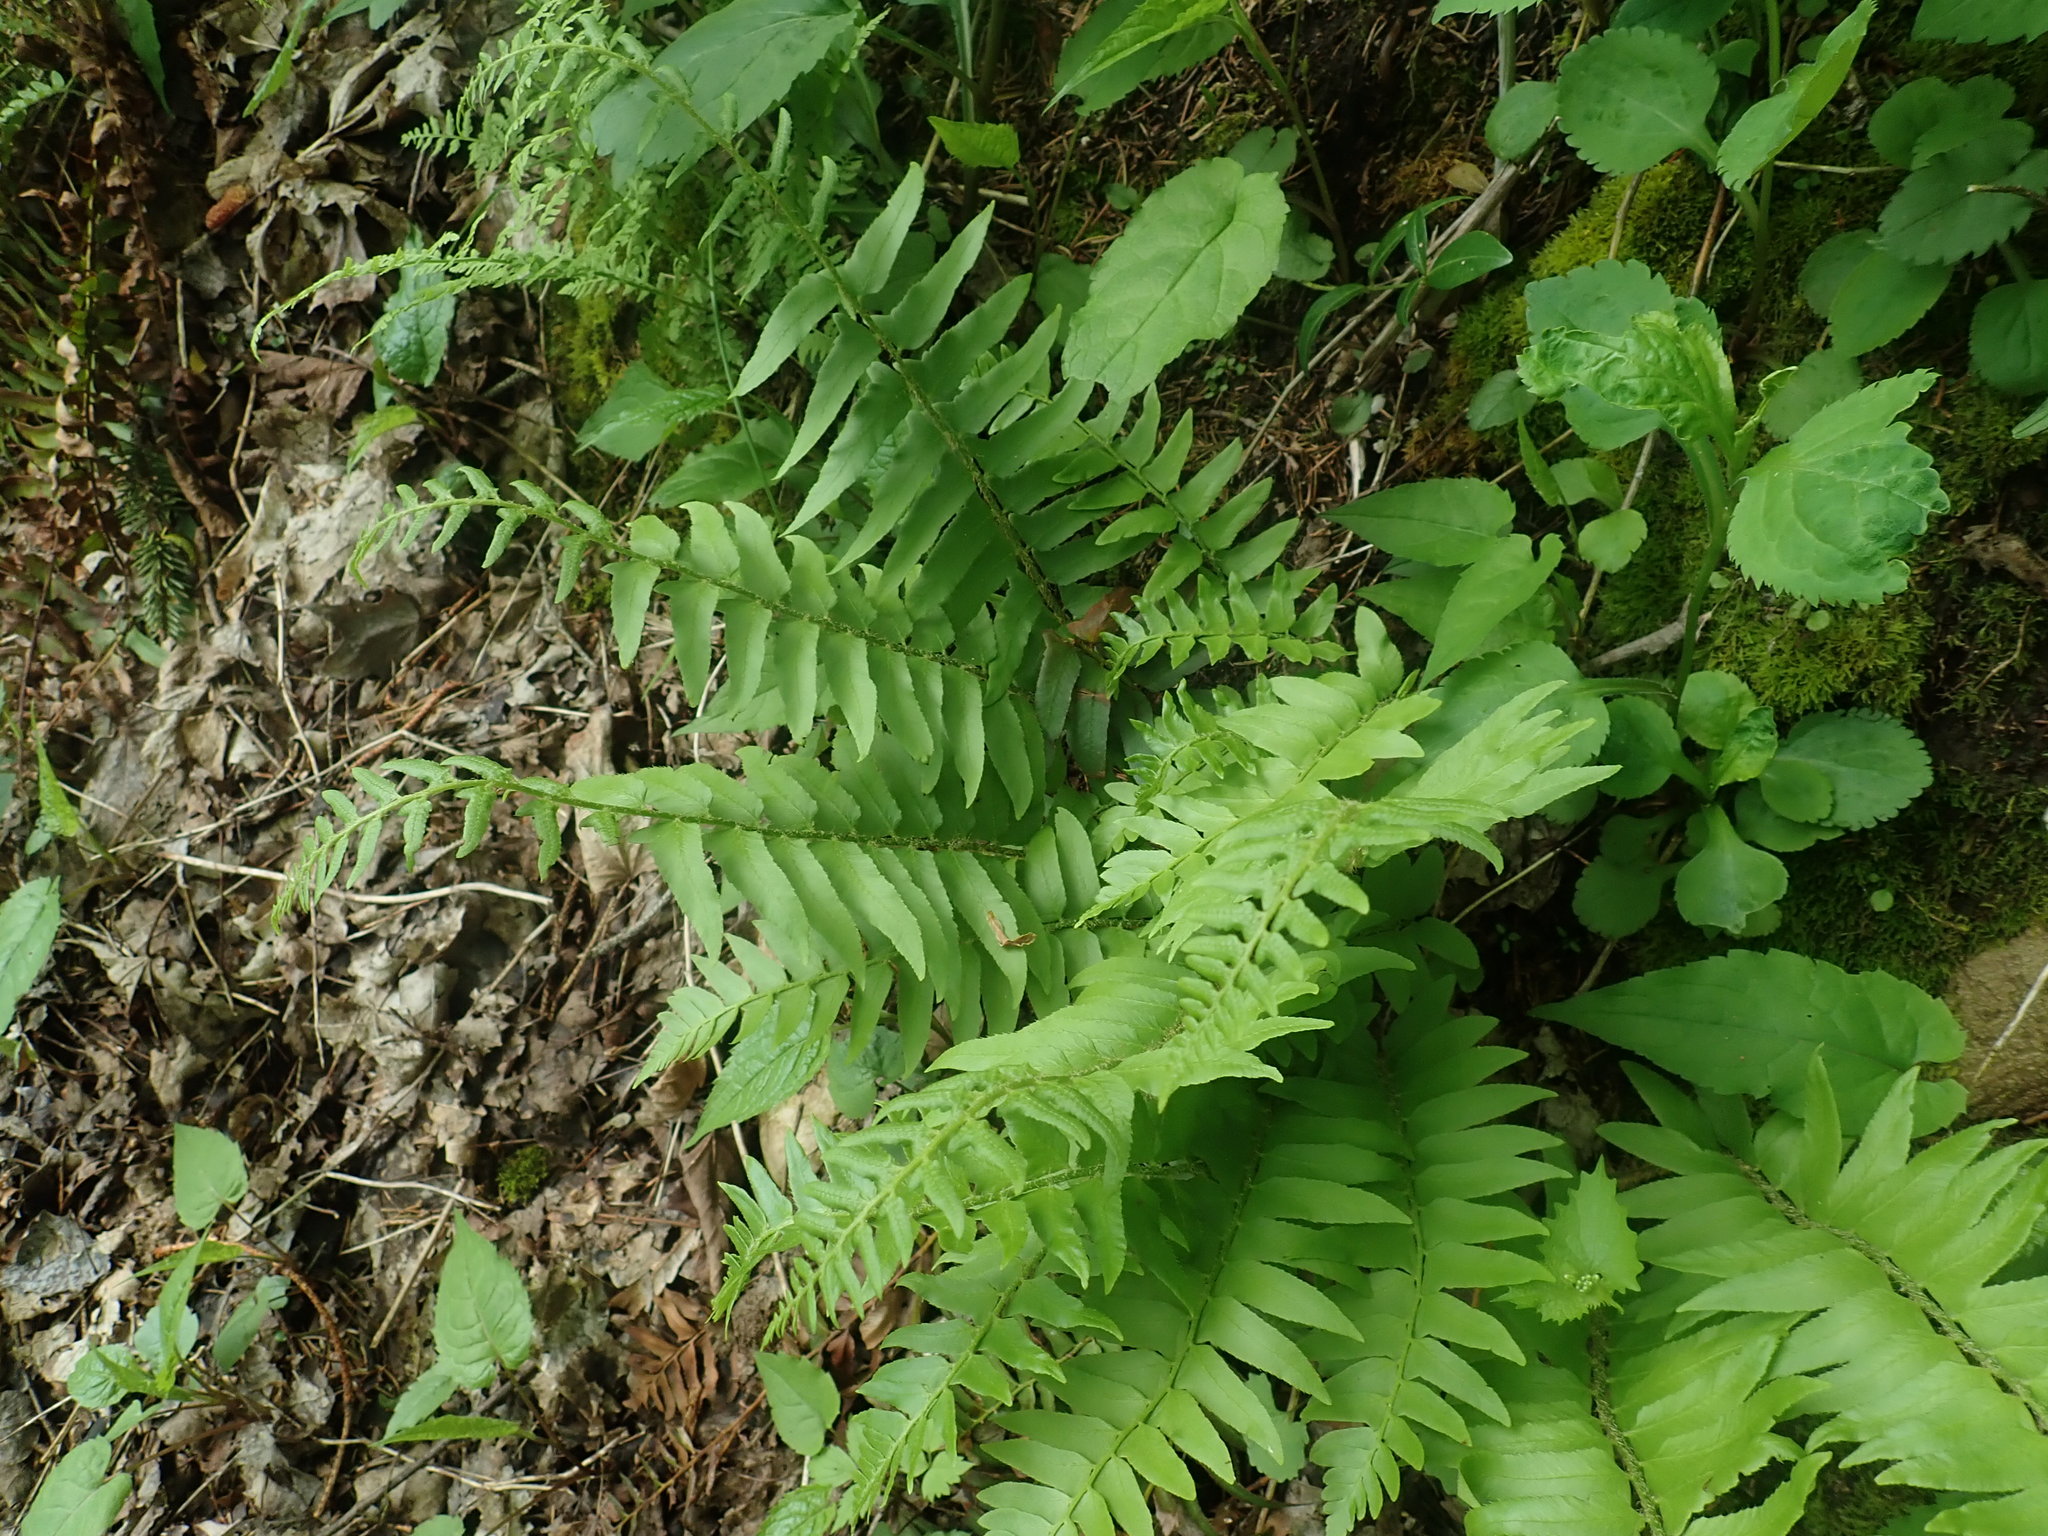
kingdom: Plantae
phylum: Tracheophyta
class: Polypodiopsida
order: Polypodiales
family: Dryopteridaceae
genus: Polystichum
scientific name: Polystichum acrostichoides
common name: Christmas fern
